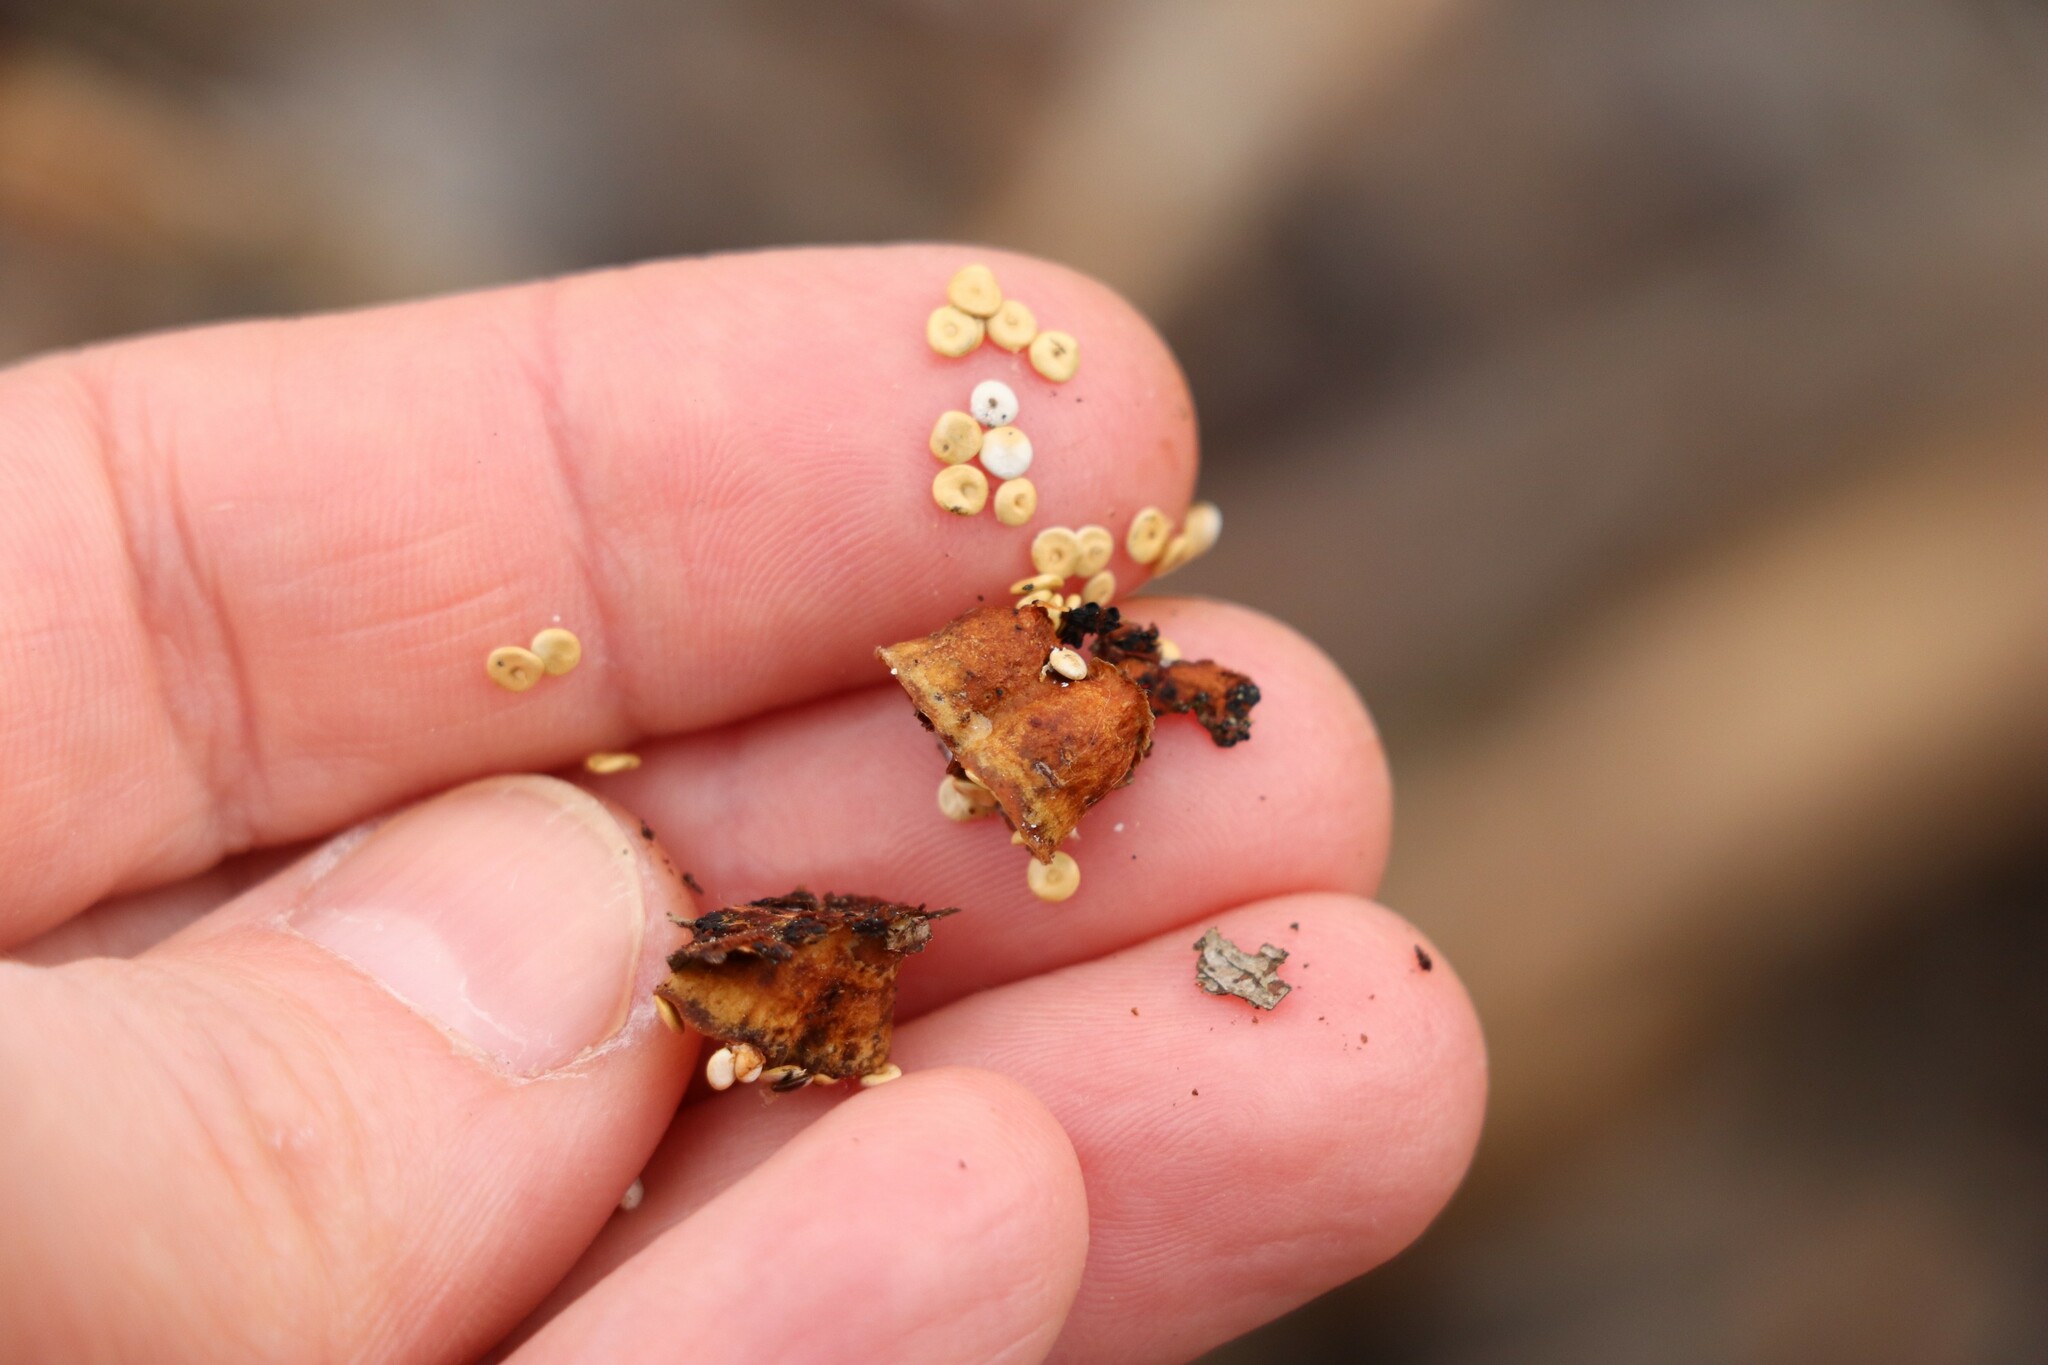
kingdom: Fungi
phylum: Basidiomycota
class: Agaricomycetes
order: Agaricales
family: Nidulariaceae
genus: Crucibulum
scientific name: Crucibulum laeve
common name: Common bird's nest
